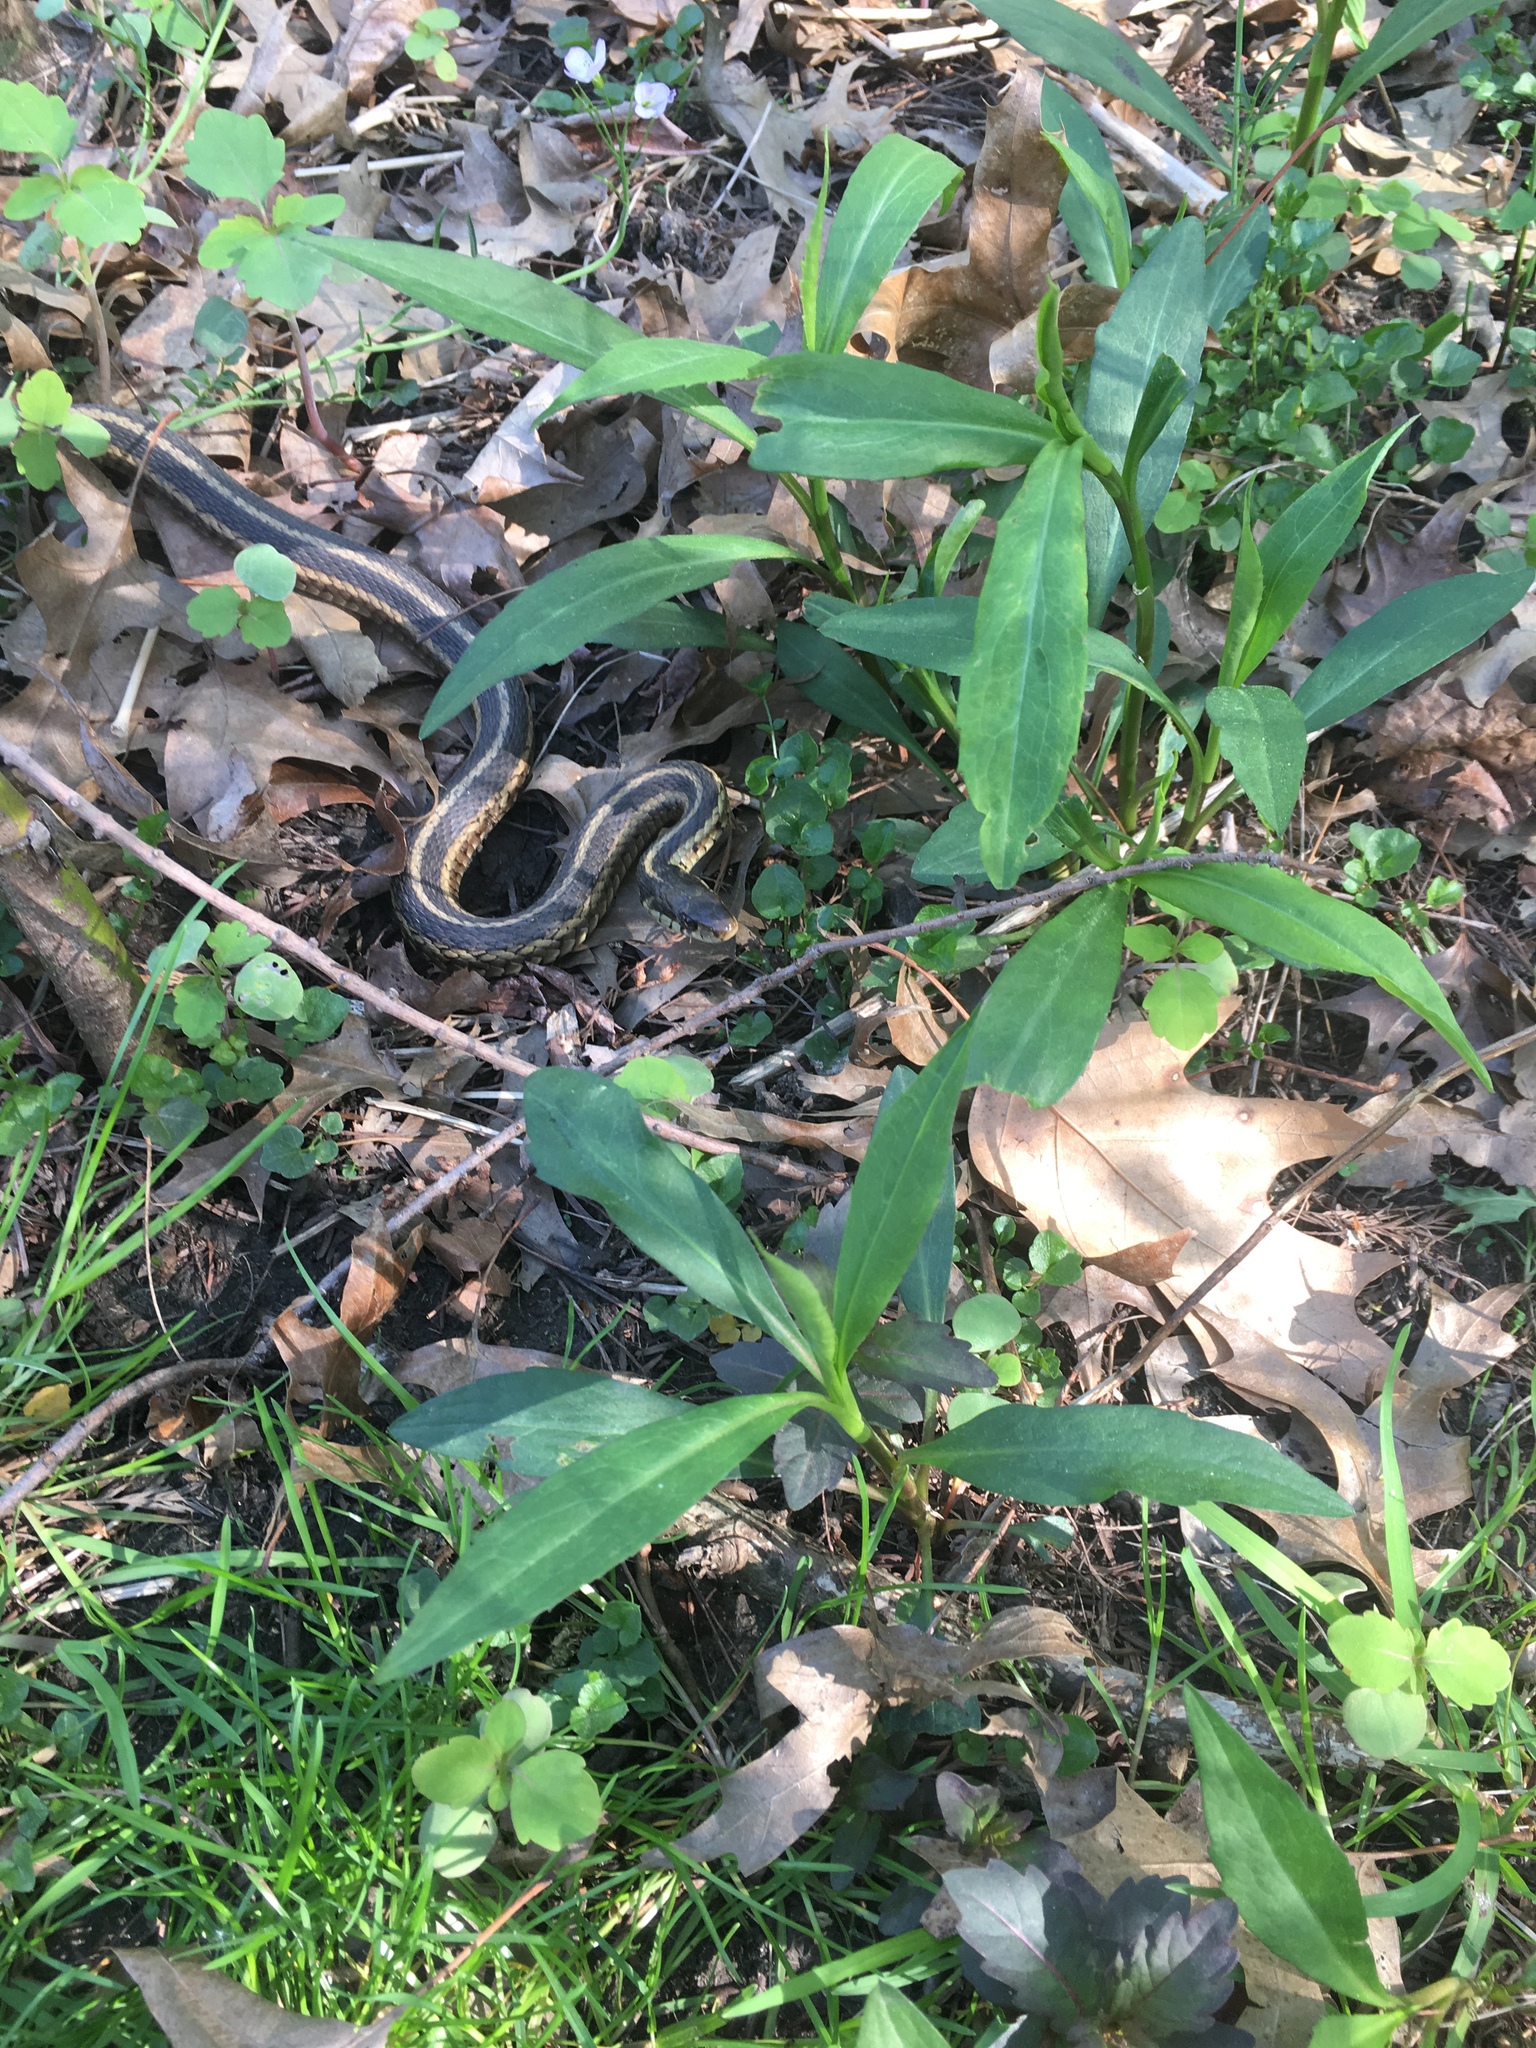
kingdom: Animalia
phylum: Chordata
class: Squamata
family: Colubridae
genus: Thamnophis
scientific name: Thamnophis sirtalis
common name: Common garter snake
